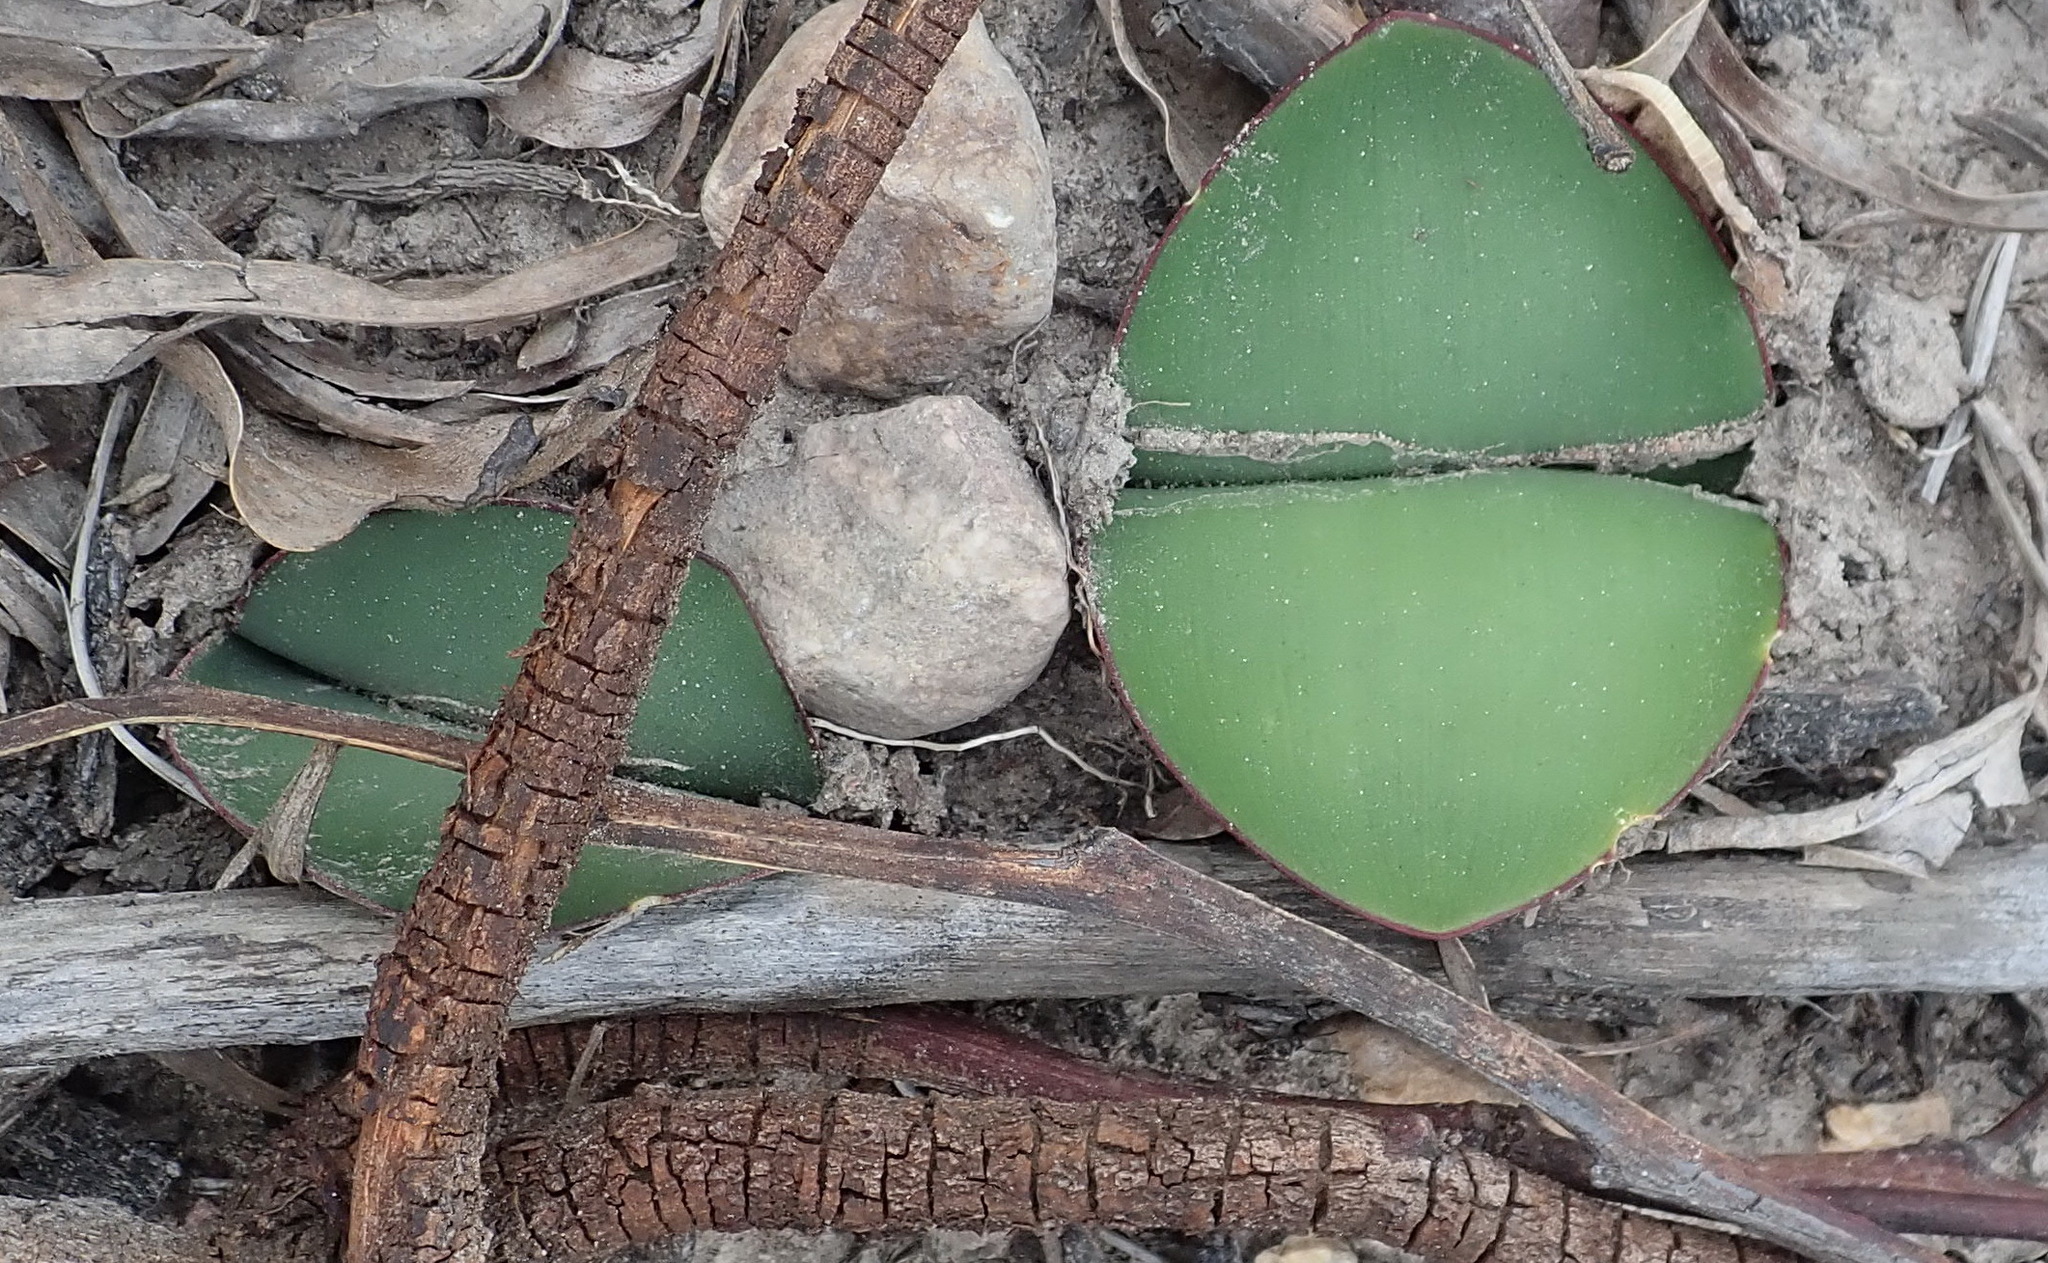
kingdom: Plantae
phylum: Tracheophyta
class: Liliopsida
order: Asparagales
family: Amaryllidaceae
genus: Haemanthus
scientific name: Haemanthus sanguineus
